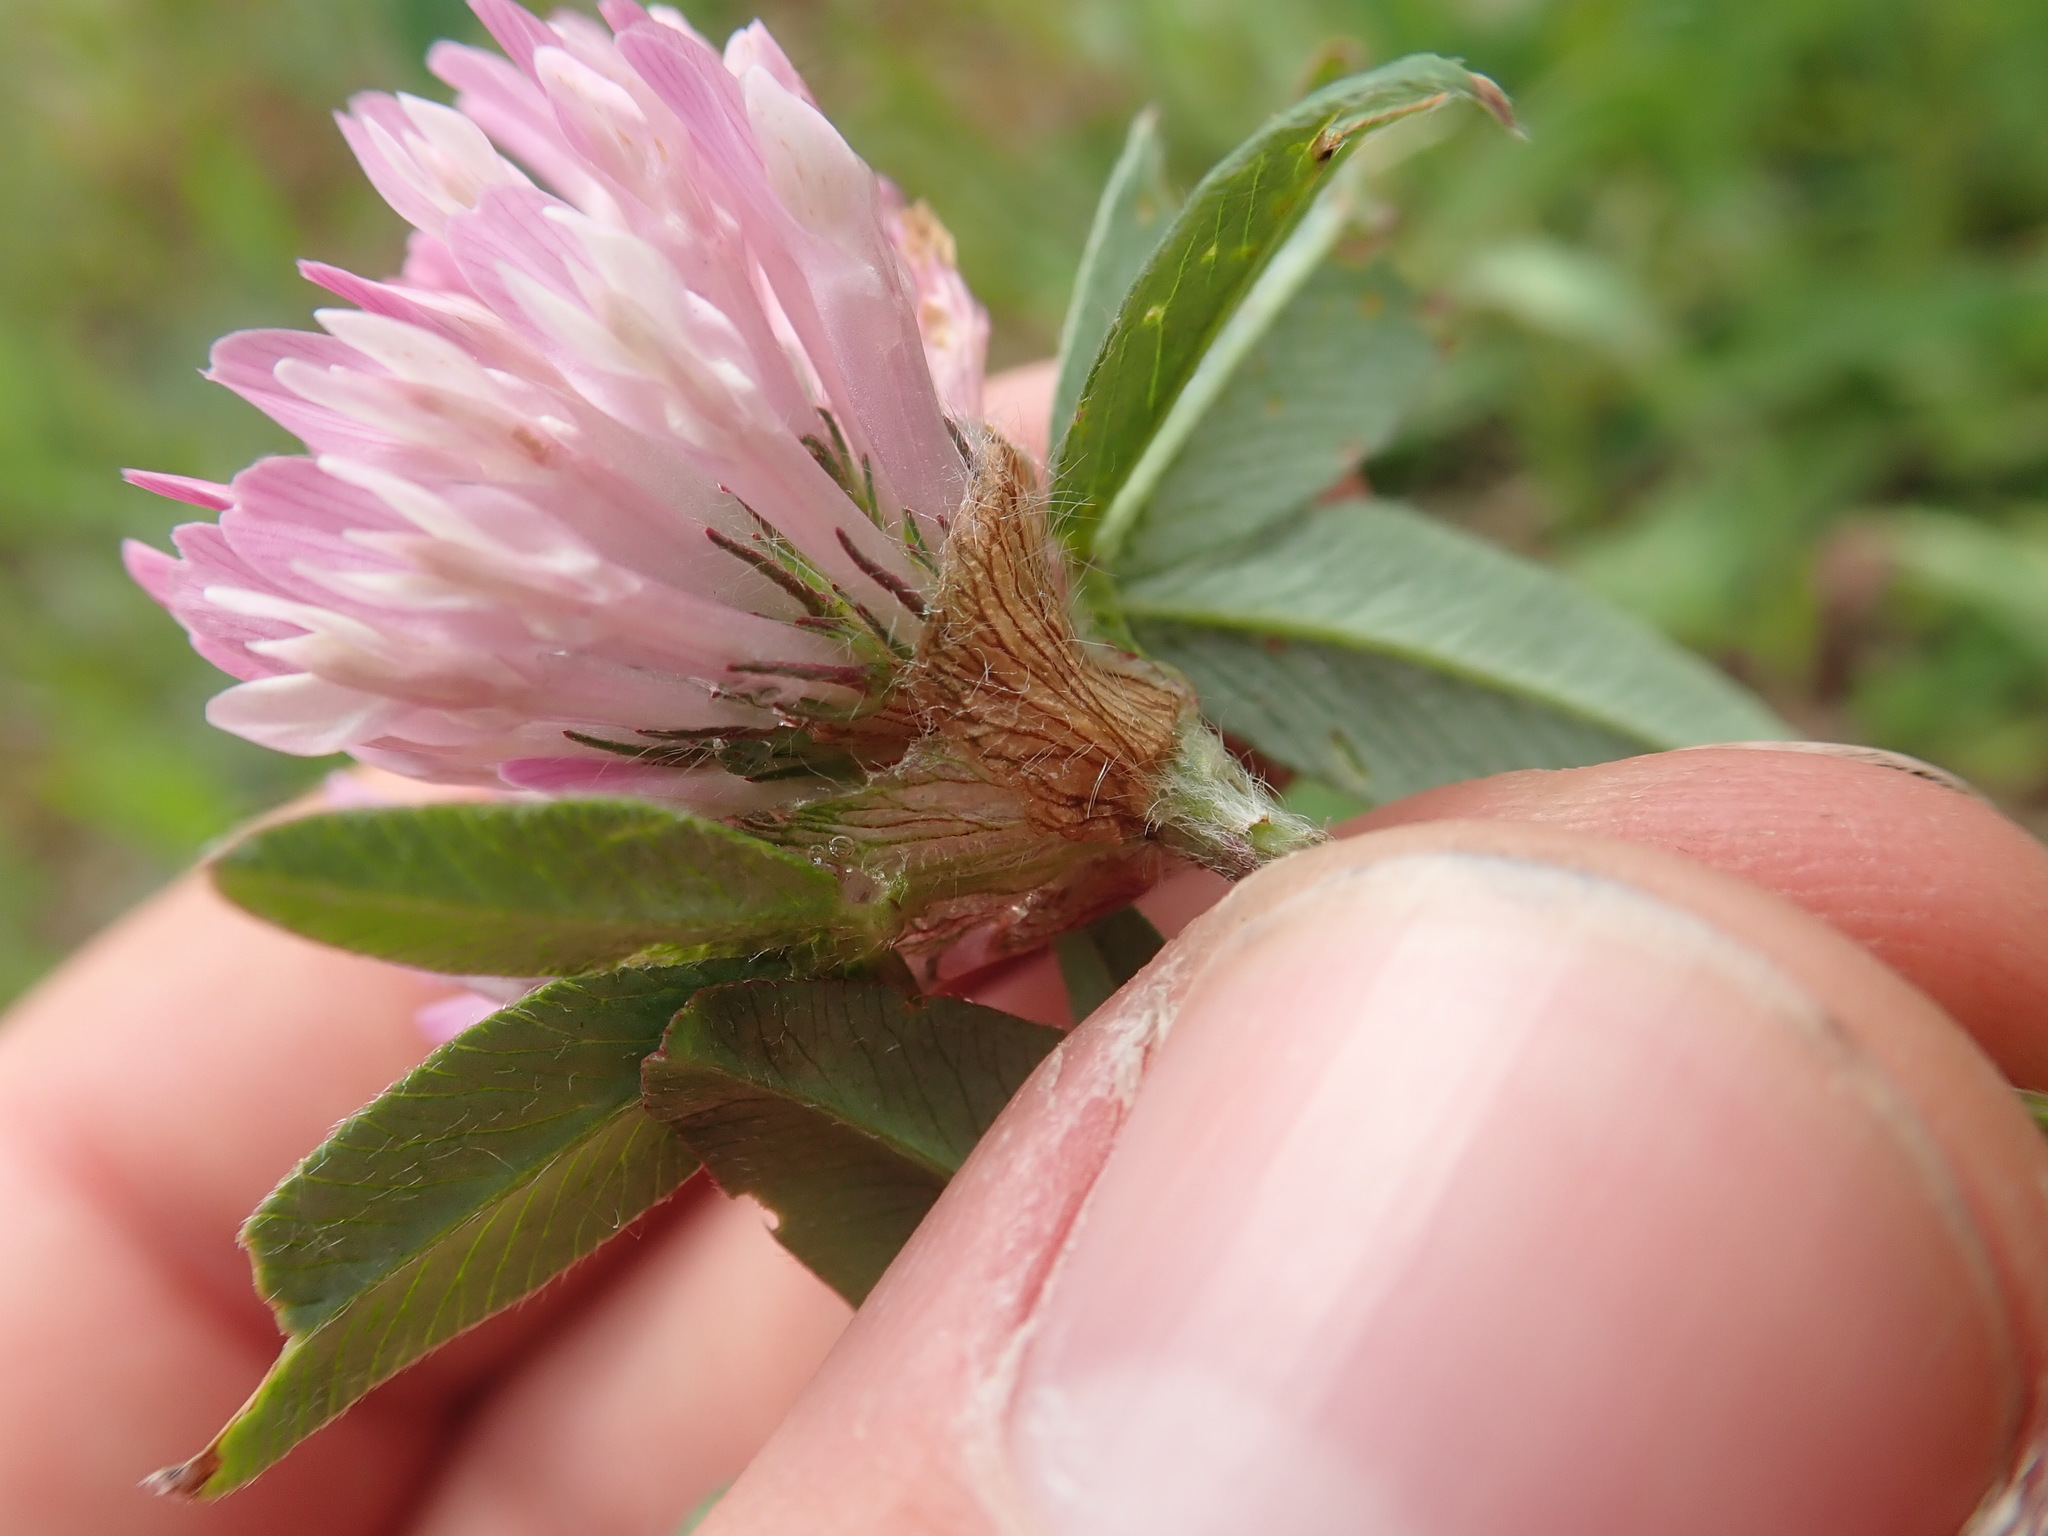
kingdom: Plantae
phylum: Tracheophyta
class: Magnoliopsida
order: Fabales
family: Fabaceae
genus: Trifolium
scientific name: Trifolium pratense
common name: Red clover
